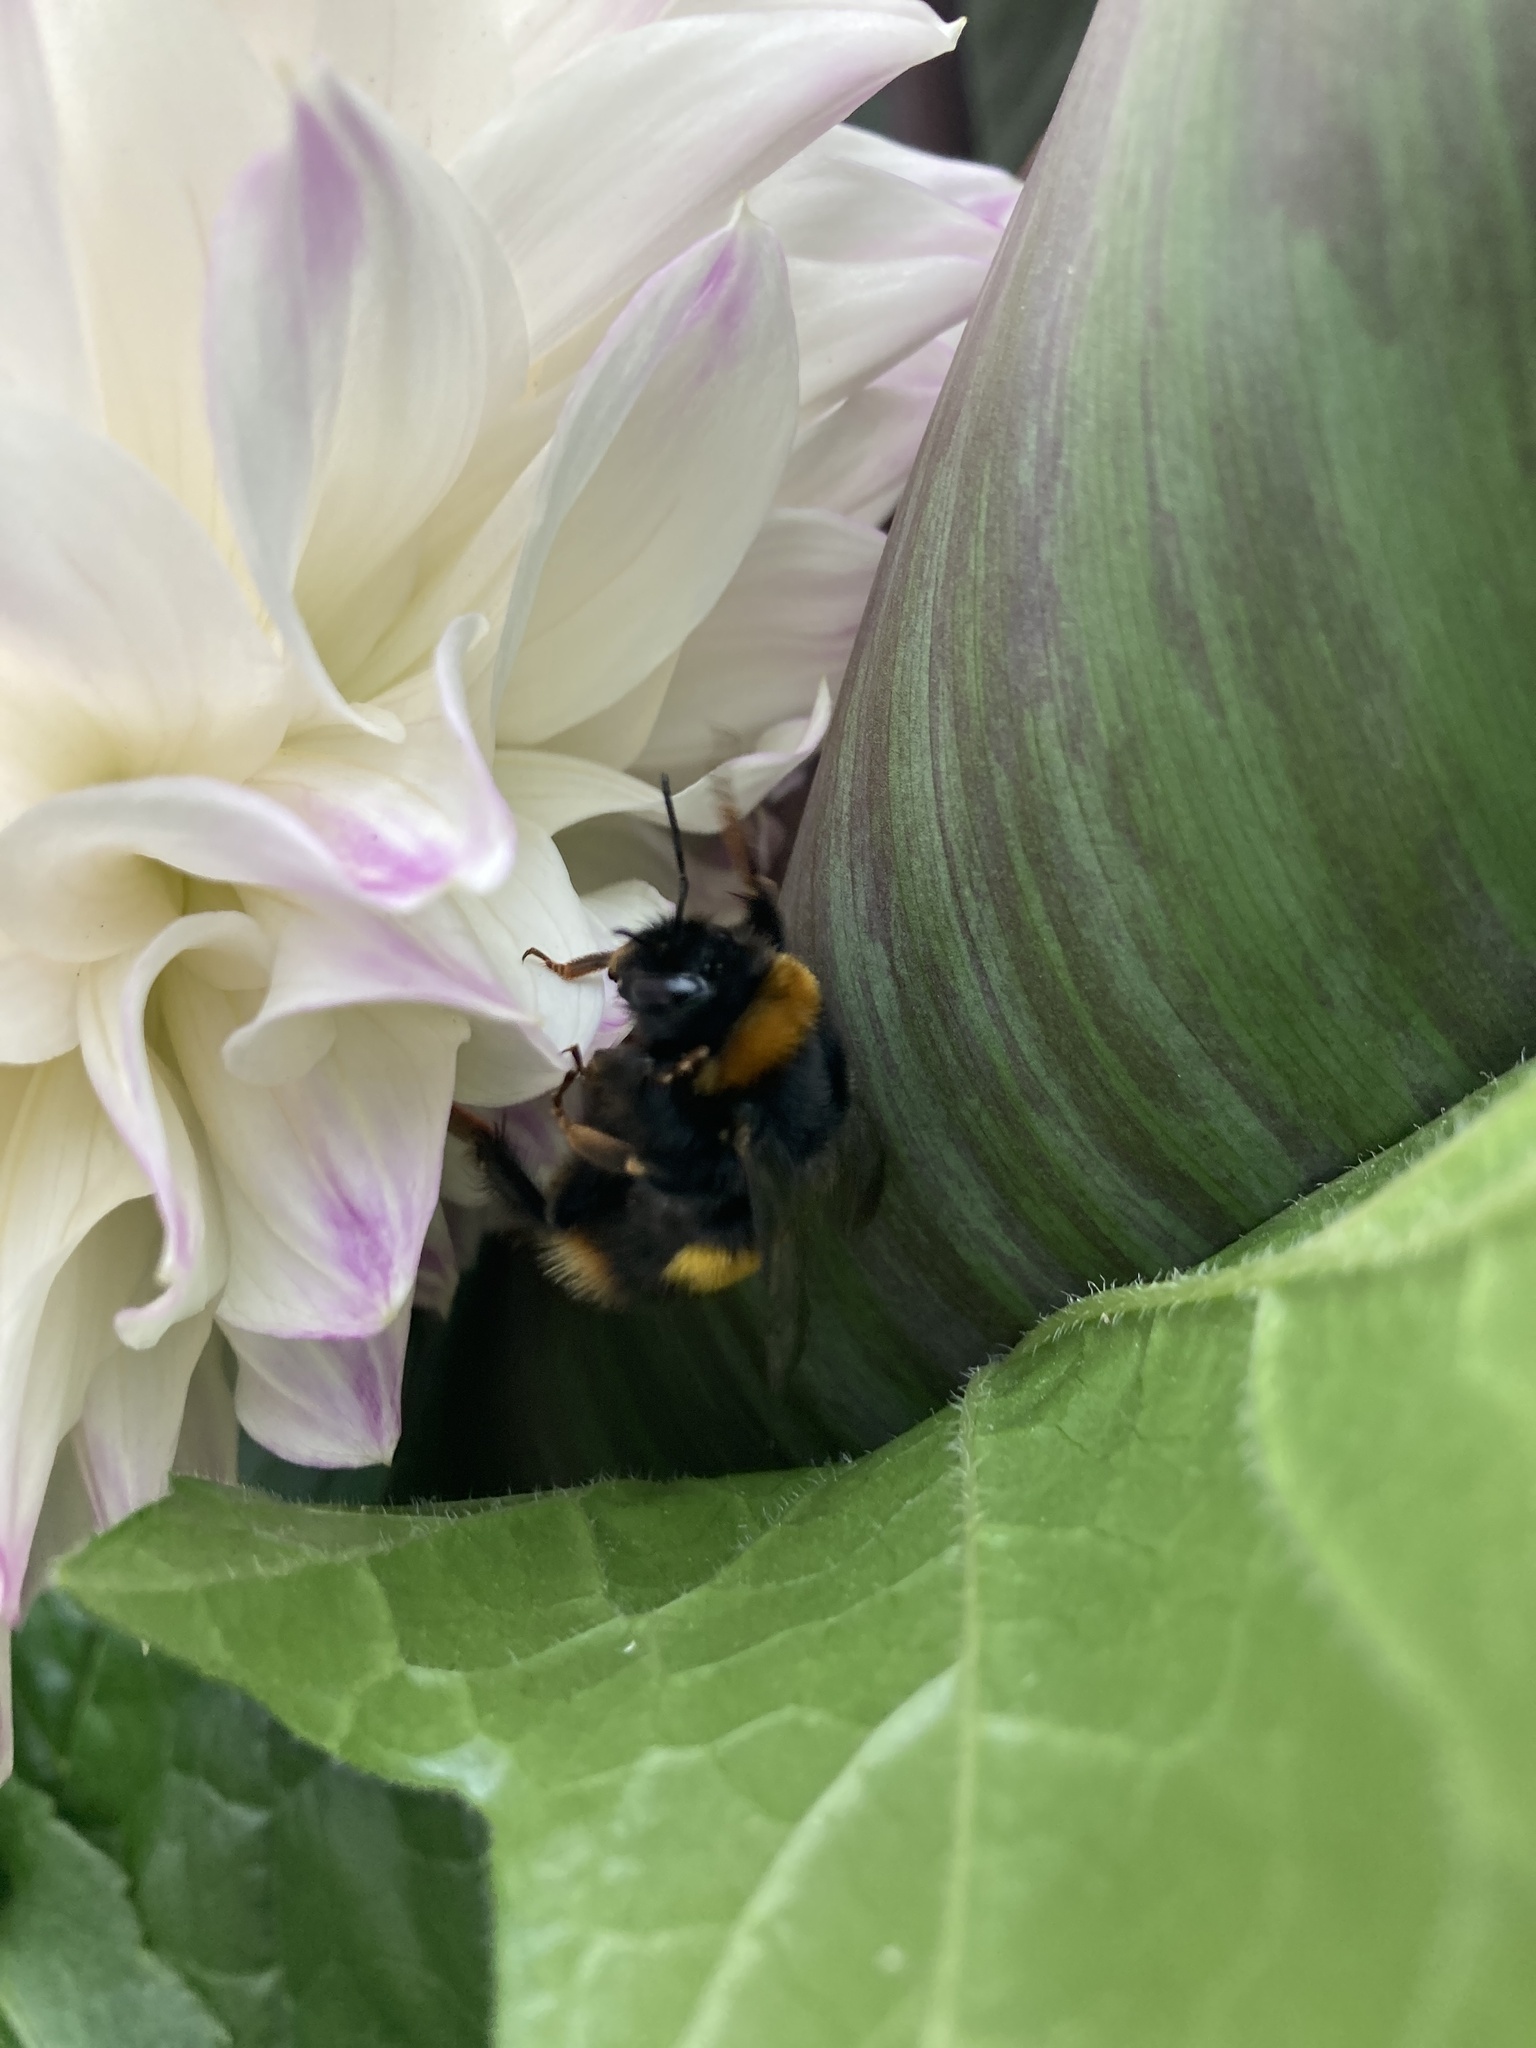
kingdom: Animalia
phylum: Arthropoda
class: Insecta
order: Hymenoptera
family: Apidae
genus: Bombus
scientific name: Bombus terrestris
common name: Buff-tailed bumblebee
